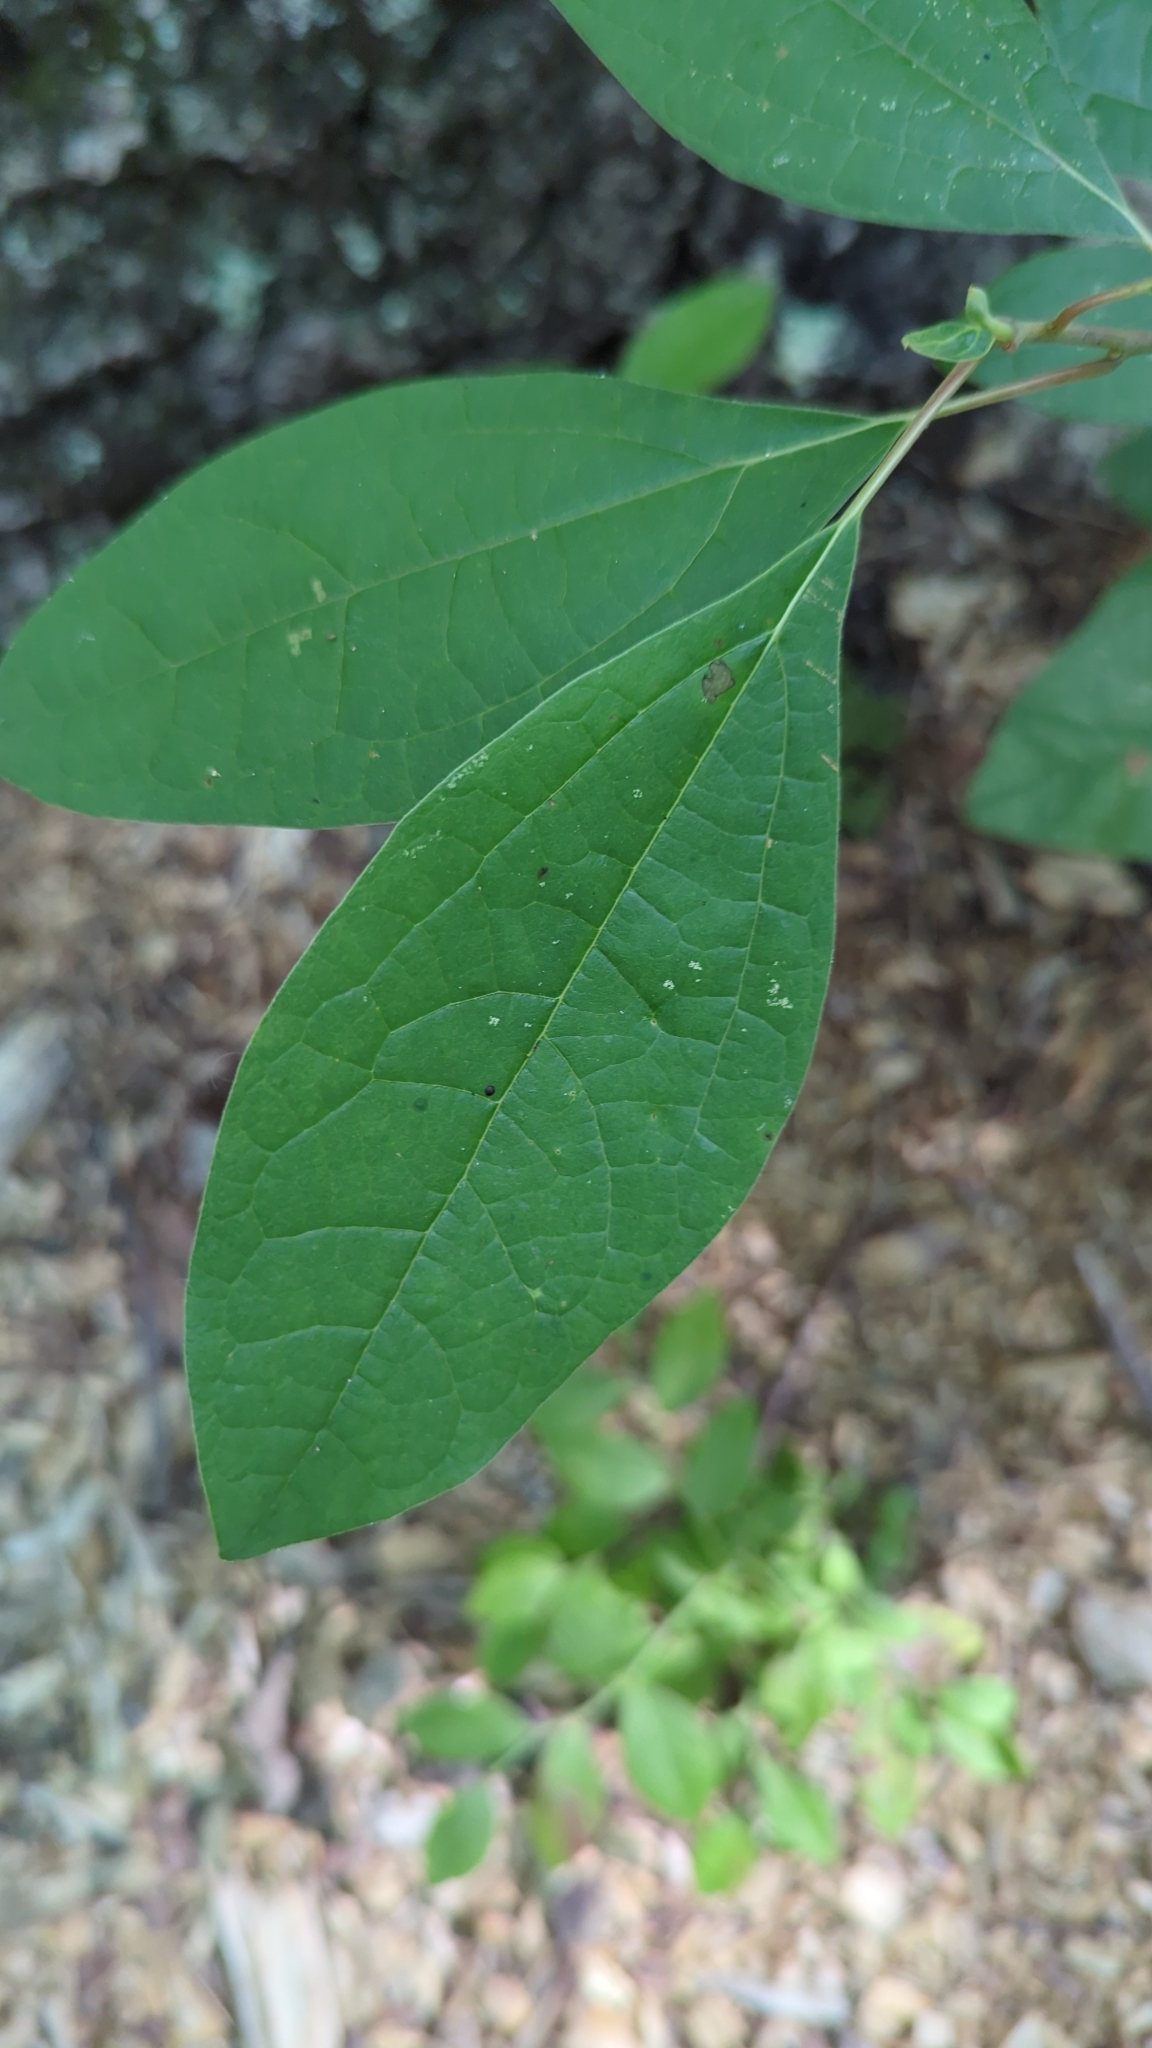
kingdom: Plantae
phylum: Tracheophyta
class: Magnoliopsida
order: Laurales
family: Lauraceae
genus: Sassafras
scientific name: Sassafras albidum
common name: Sassafras
